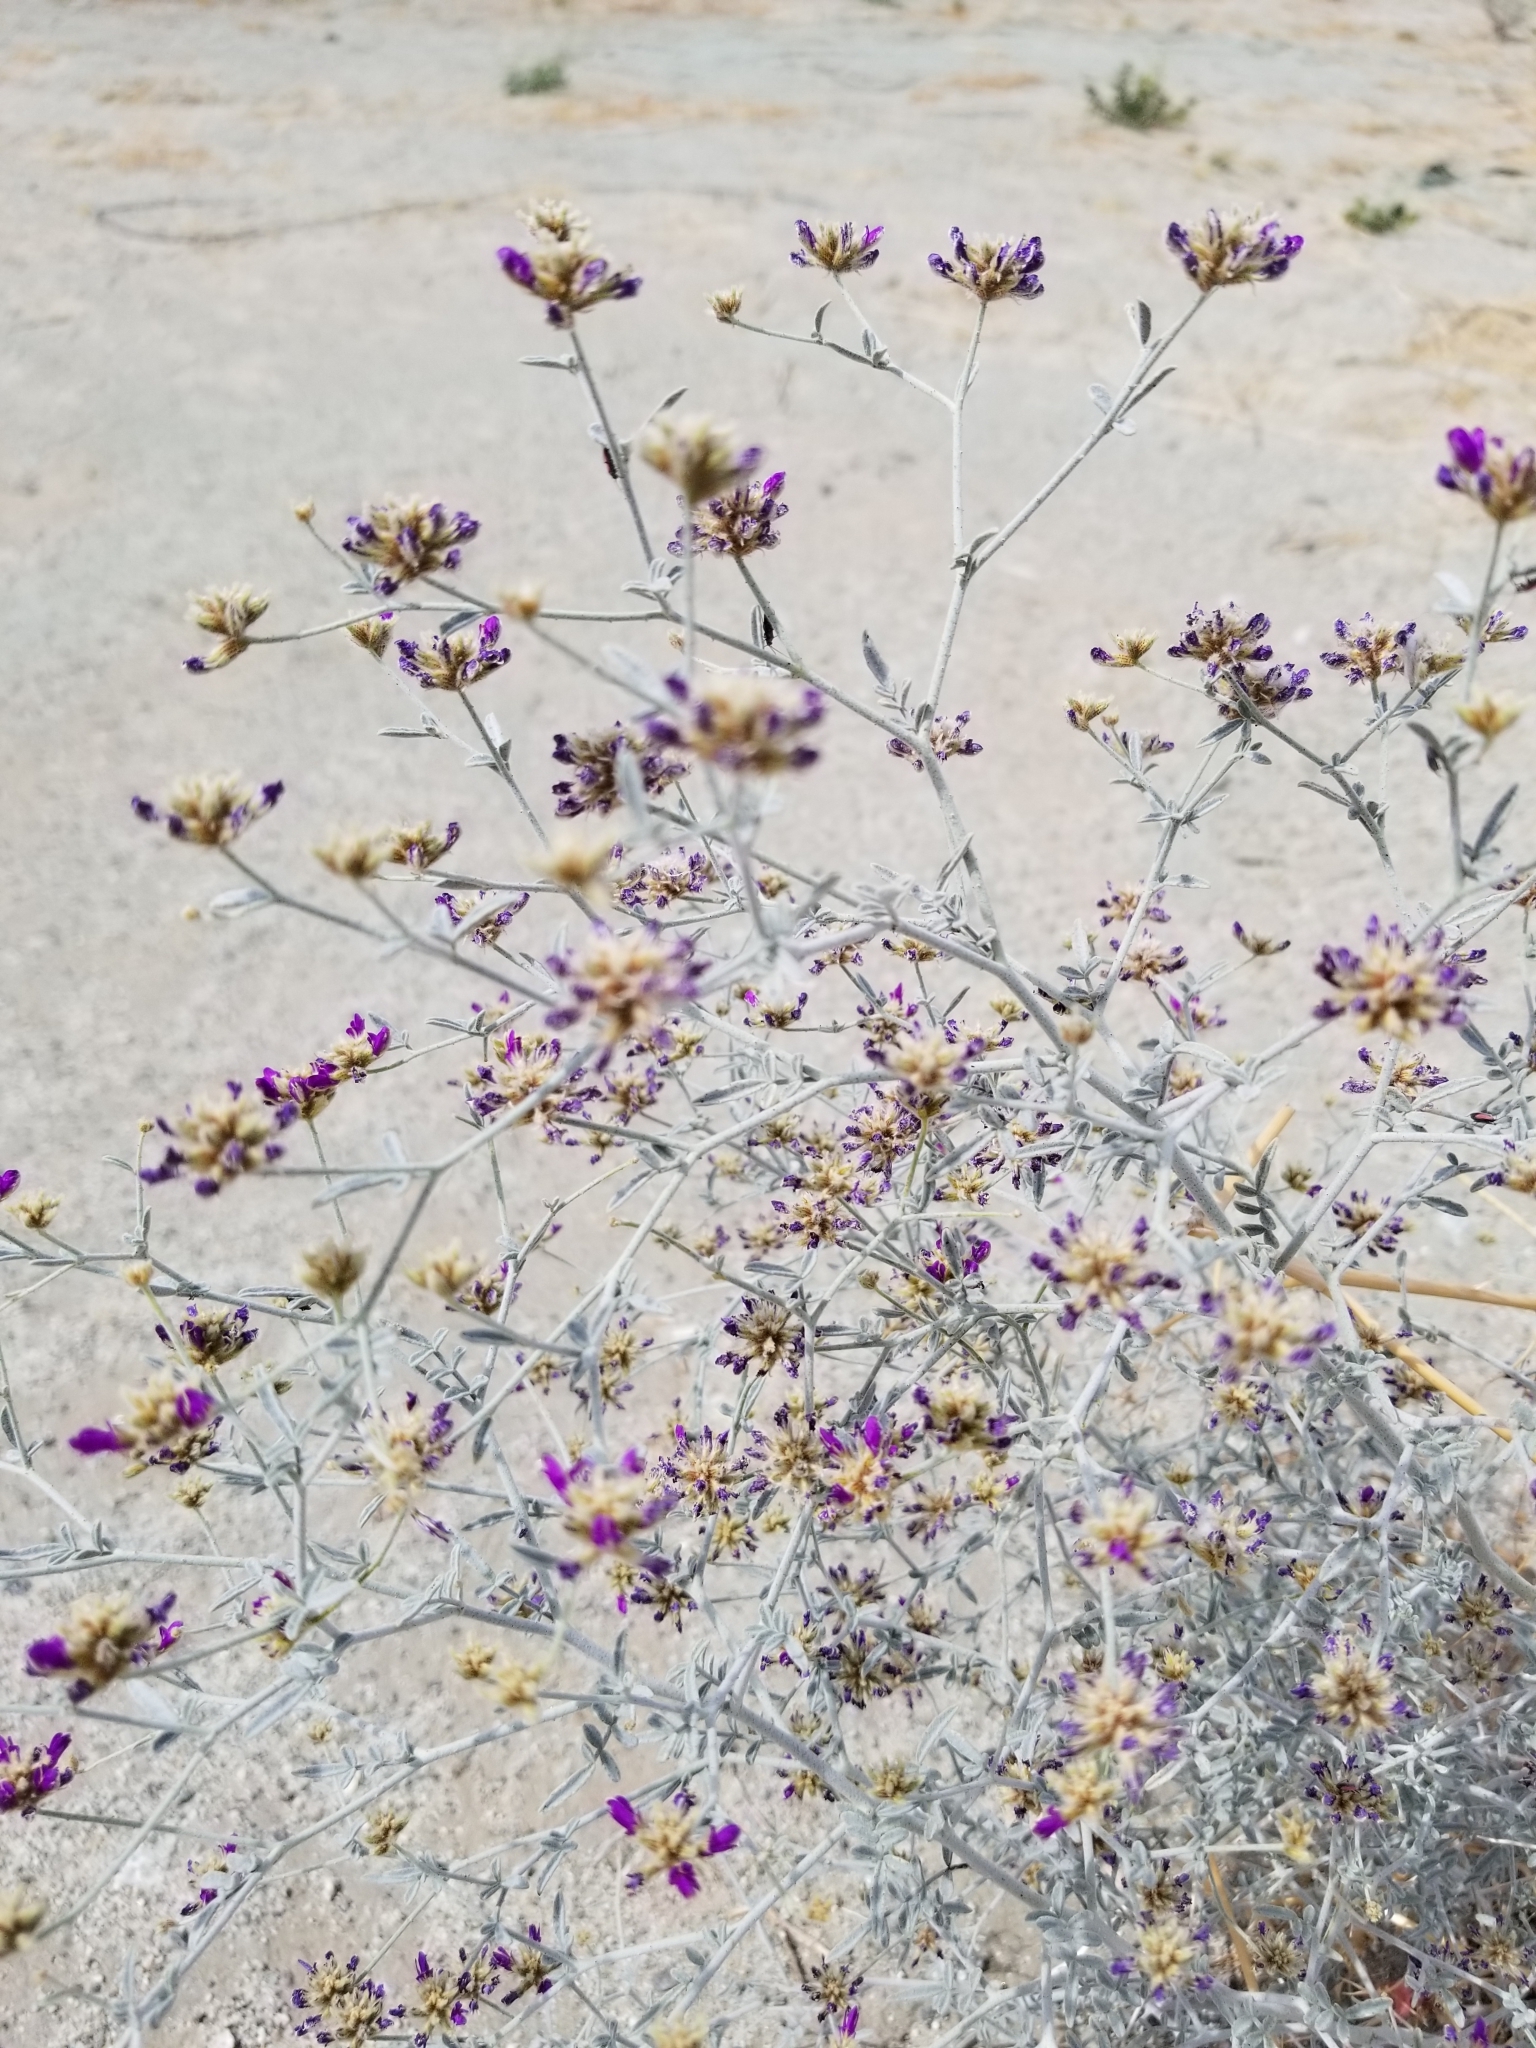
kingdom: Plantae
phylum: Tracheophyta
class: Magnoliopsida
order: Fabales
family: Fabaceae
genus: Psorothamnus
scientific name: Psorothamnus emoryi
